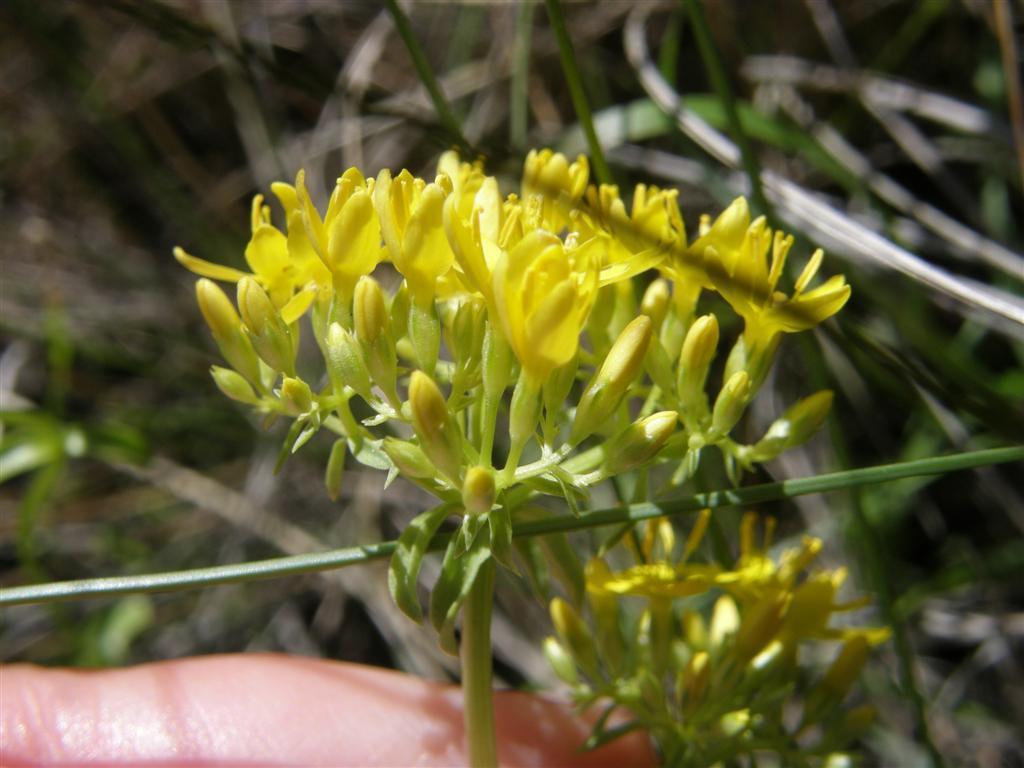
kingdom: Plantae
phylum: Tracheophyta
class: Magnoliopsida
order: Gentianales
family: Gentianaceae
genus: Sebaea
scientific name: Sebaea aurea
